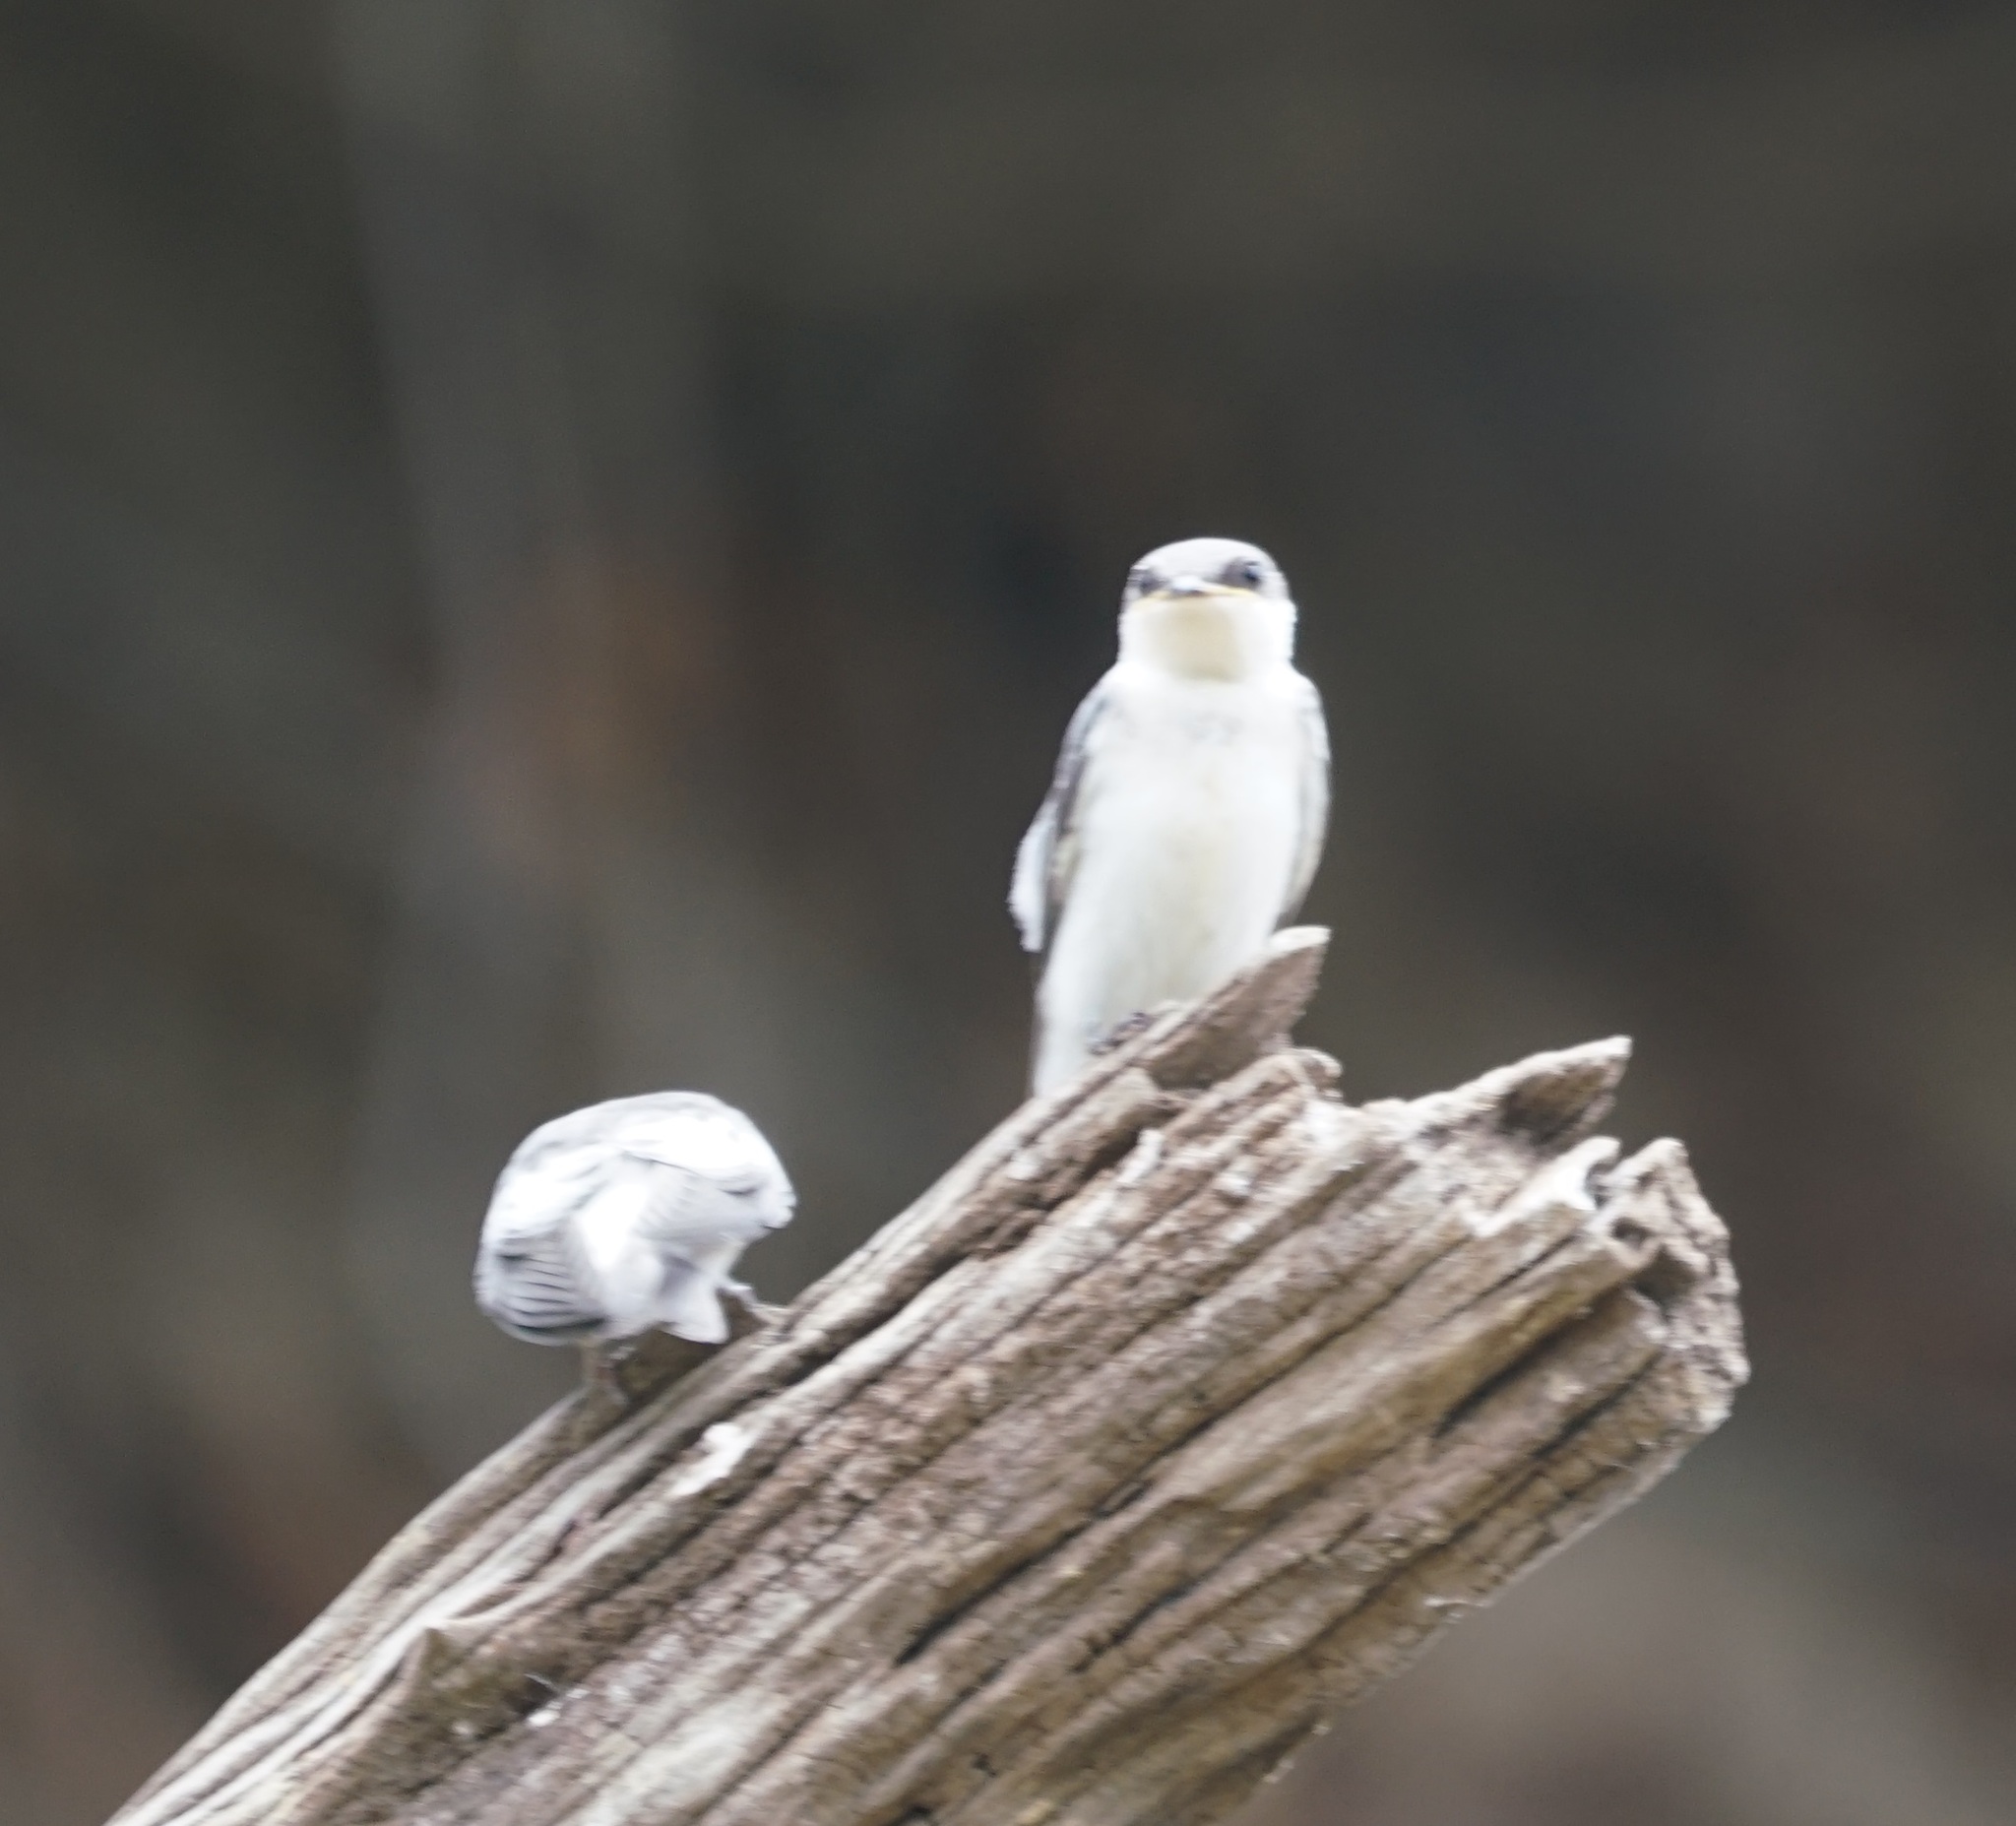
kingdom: Animalia
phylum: Chordata
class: Aves
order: Passeriformes
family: Hirundinidae
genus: Tachycineta
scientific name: Tachycineta albiventer
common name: White-winged swallow
